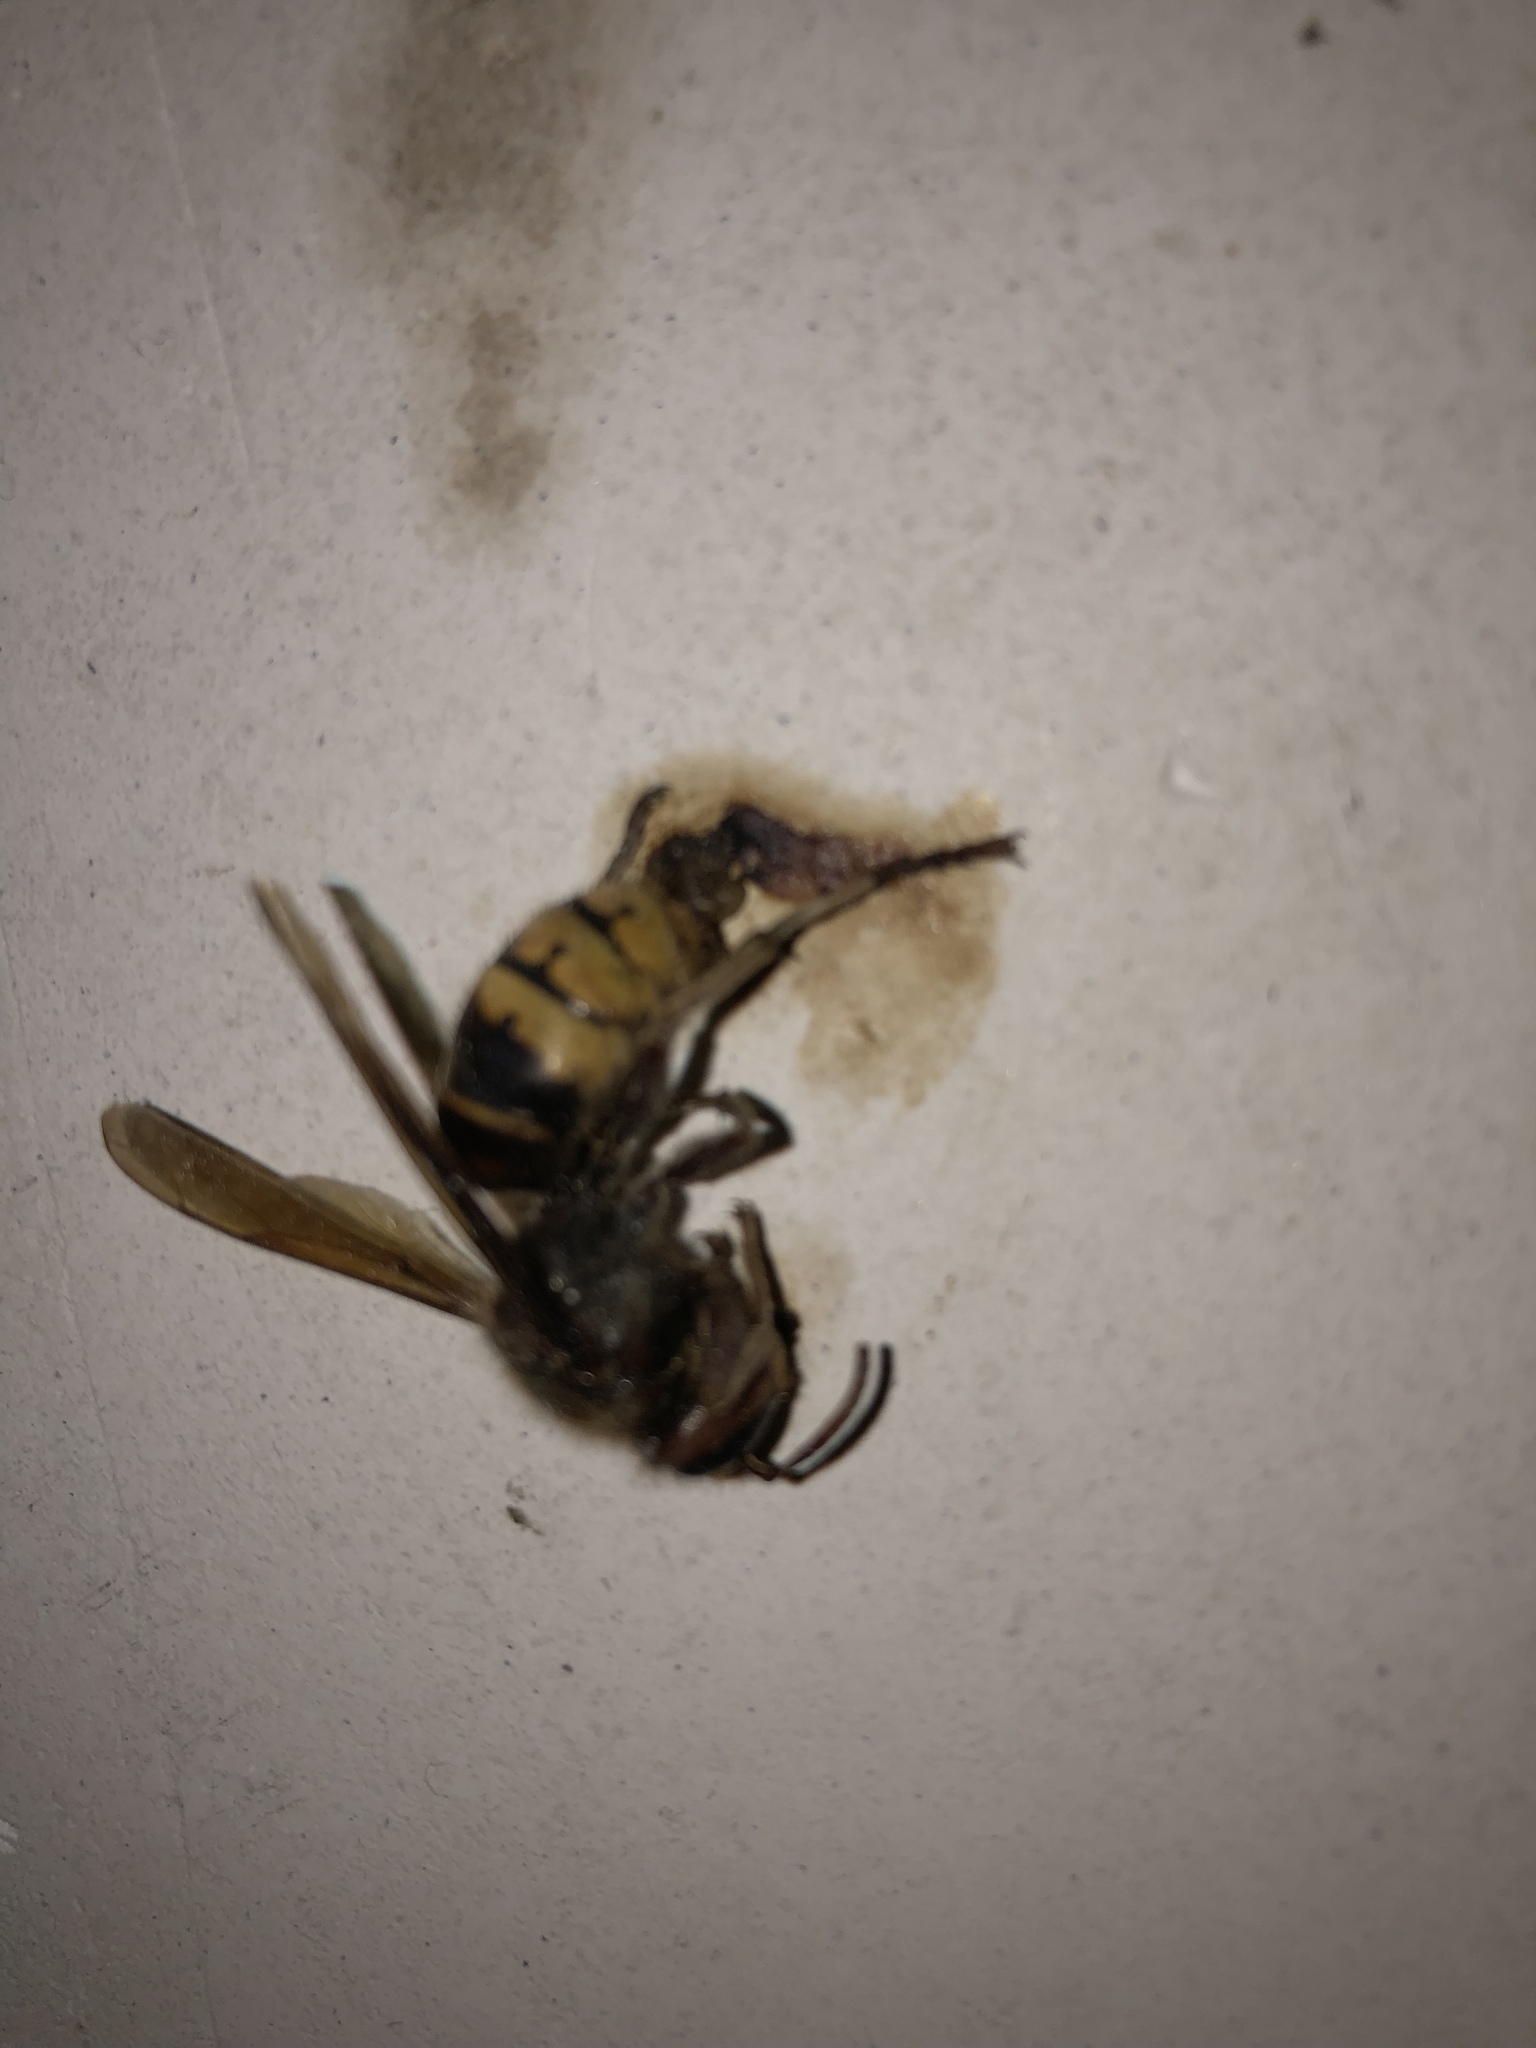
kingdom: Animalia
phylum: Arthropoda
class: Insecta
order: Hymenoptera
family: Vespidae
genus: Vespa
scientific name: Vespa crabro
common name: Hornet
